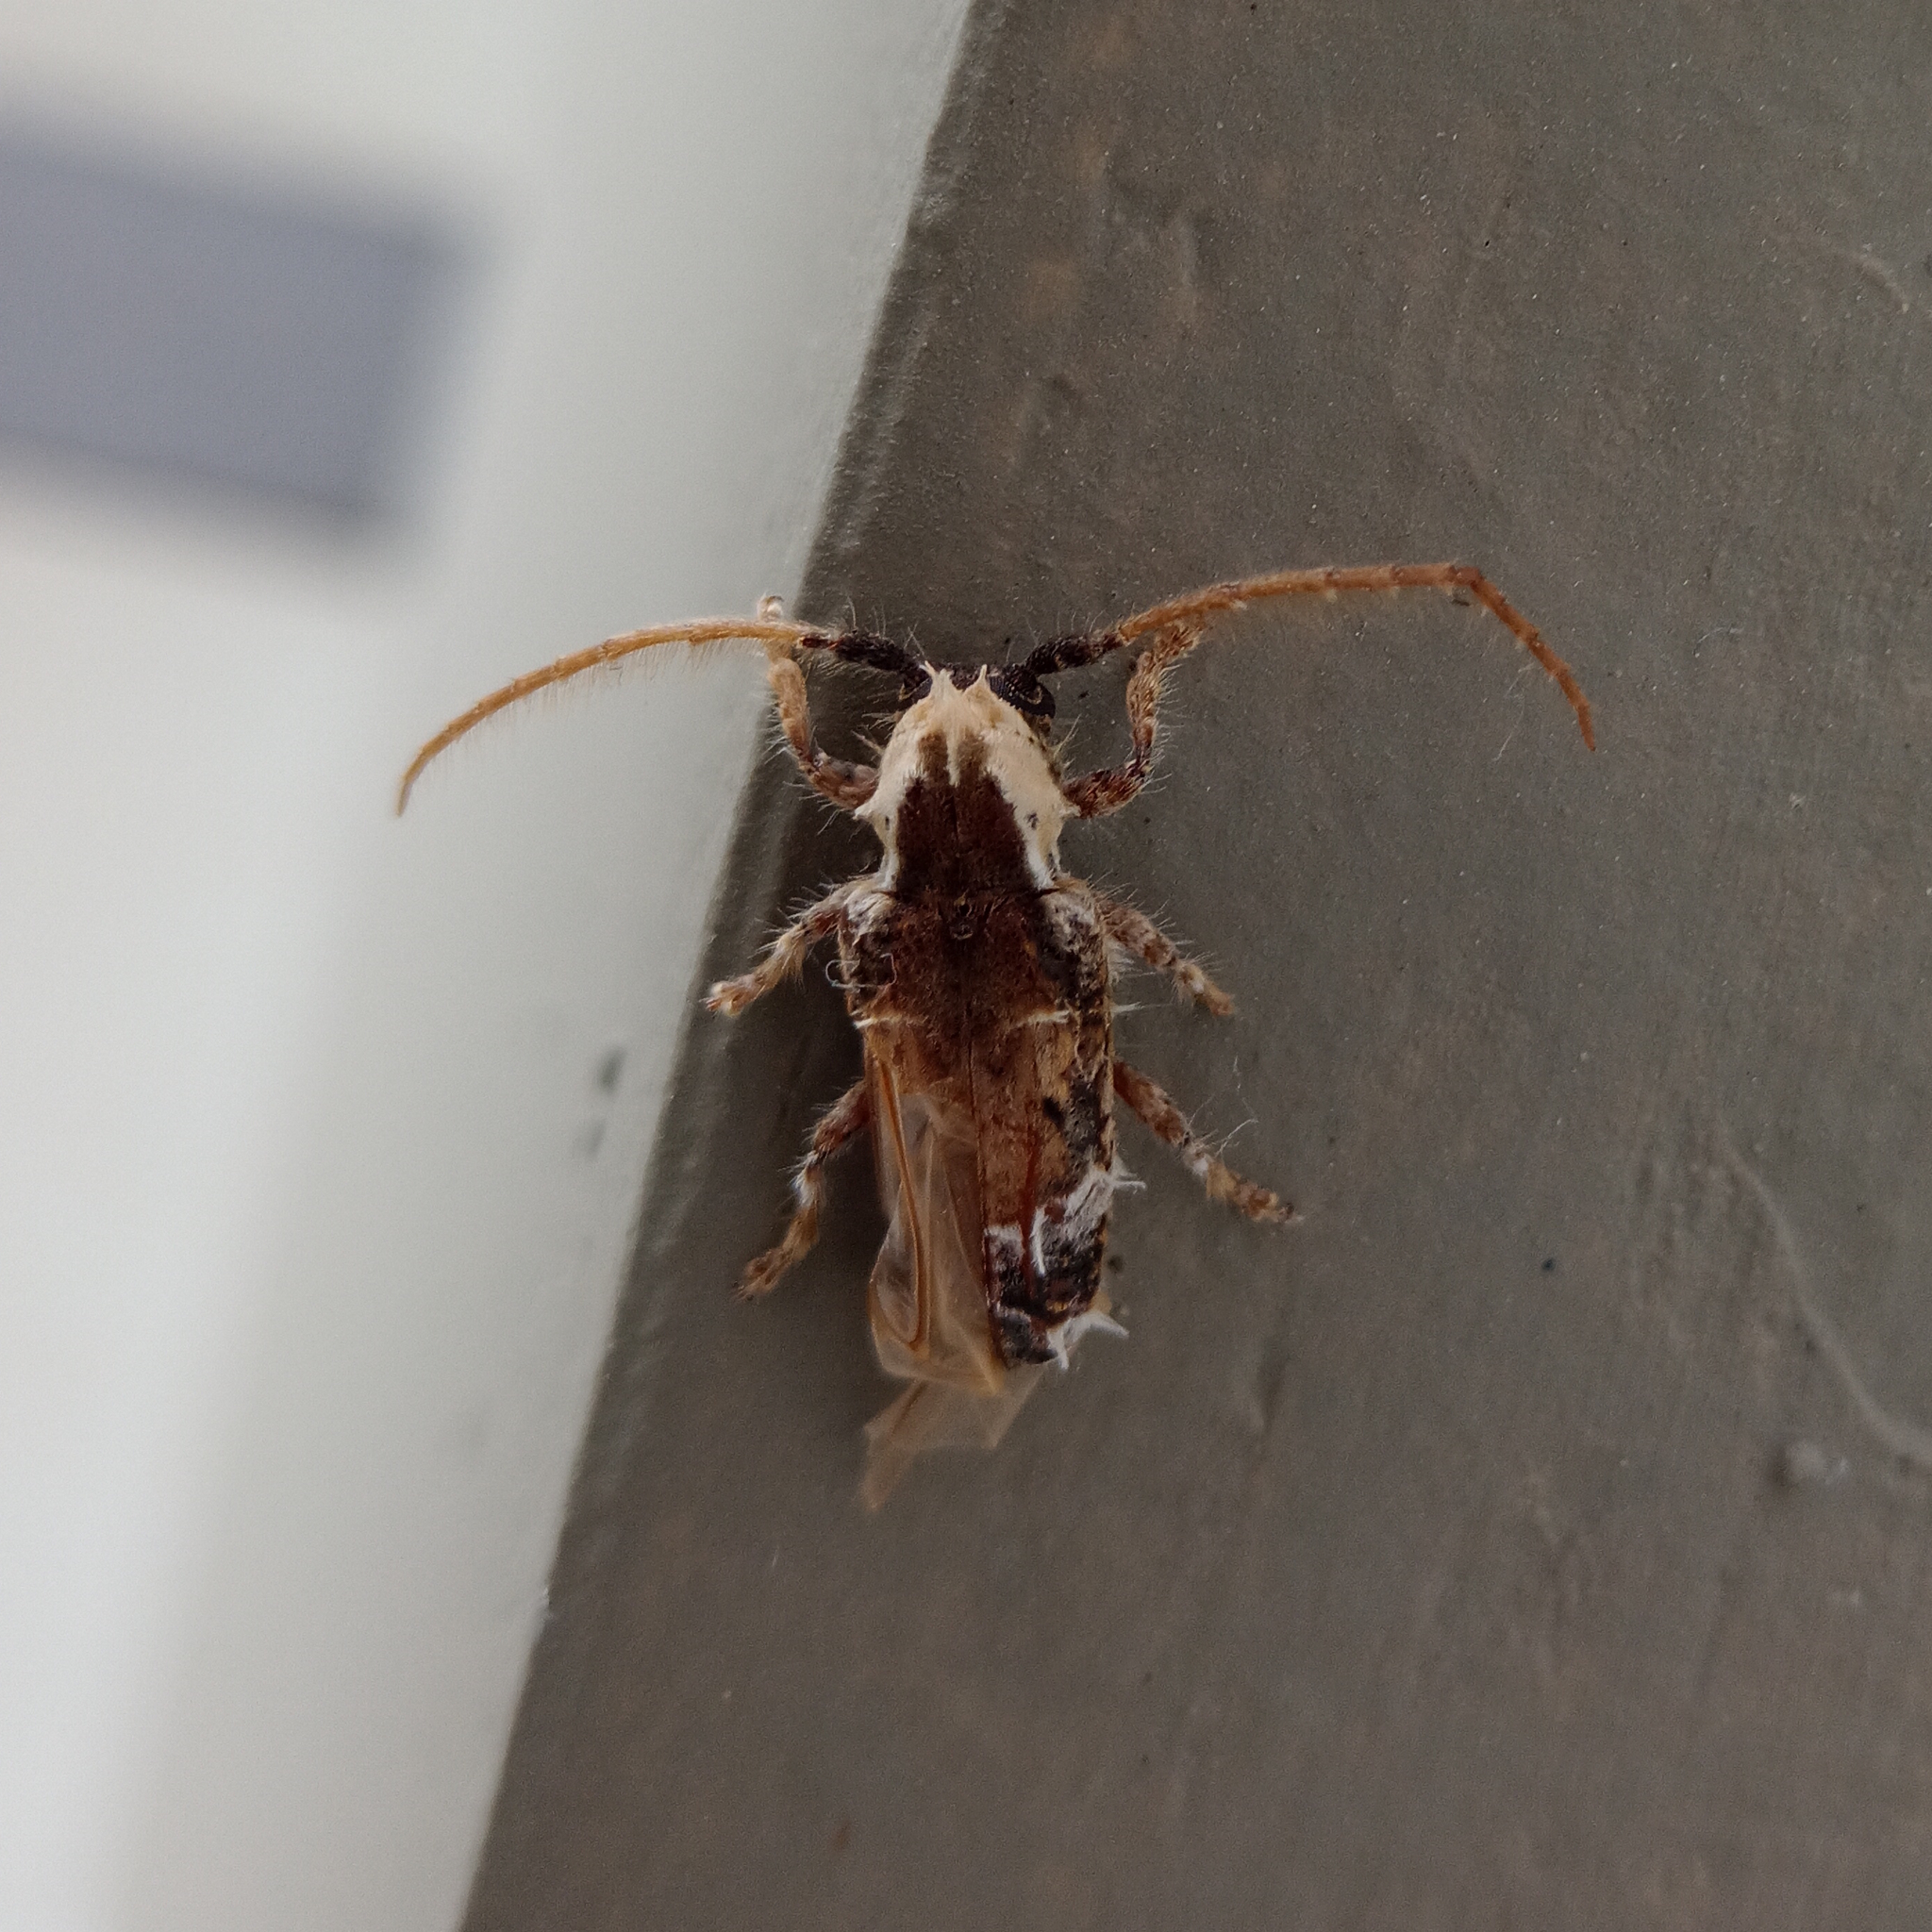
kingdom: Animalia
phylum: Arthropoda
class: Insecta
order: Coleoptera
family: Cerambycidae
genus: Desmiphora
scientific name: Desmiphora cirrosa
